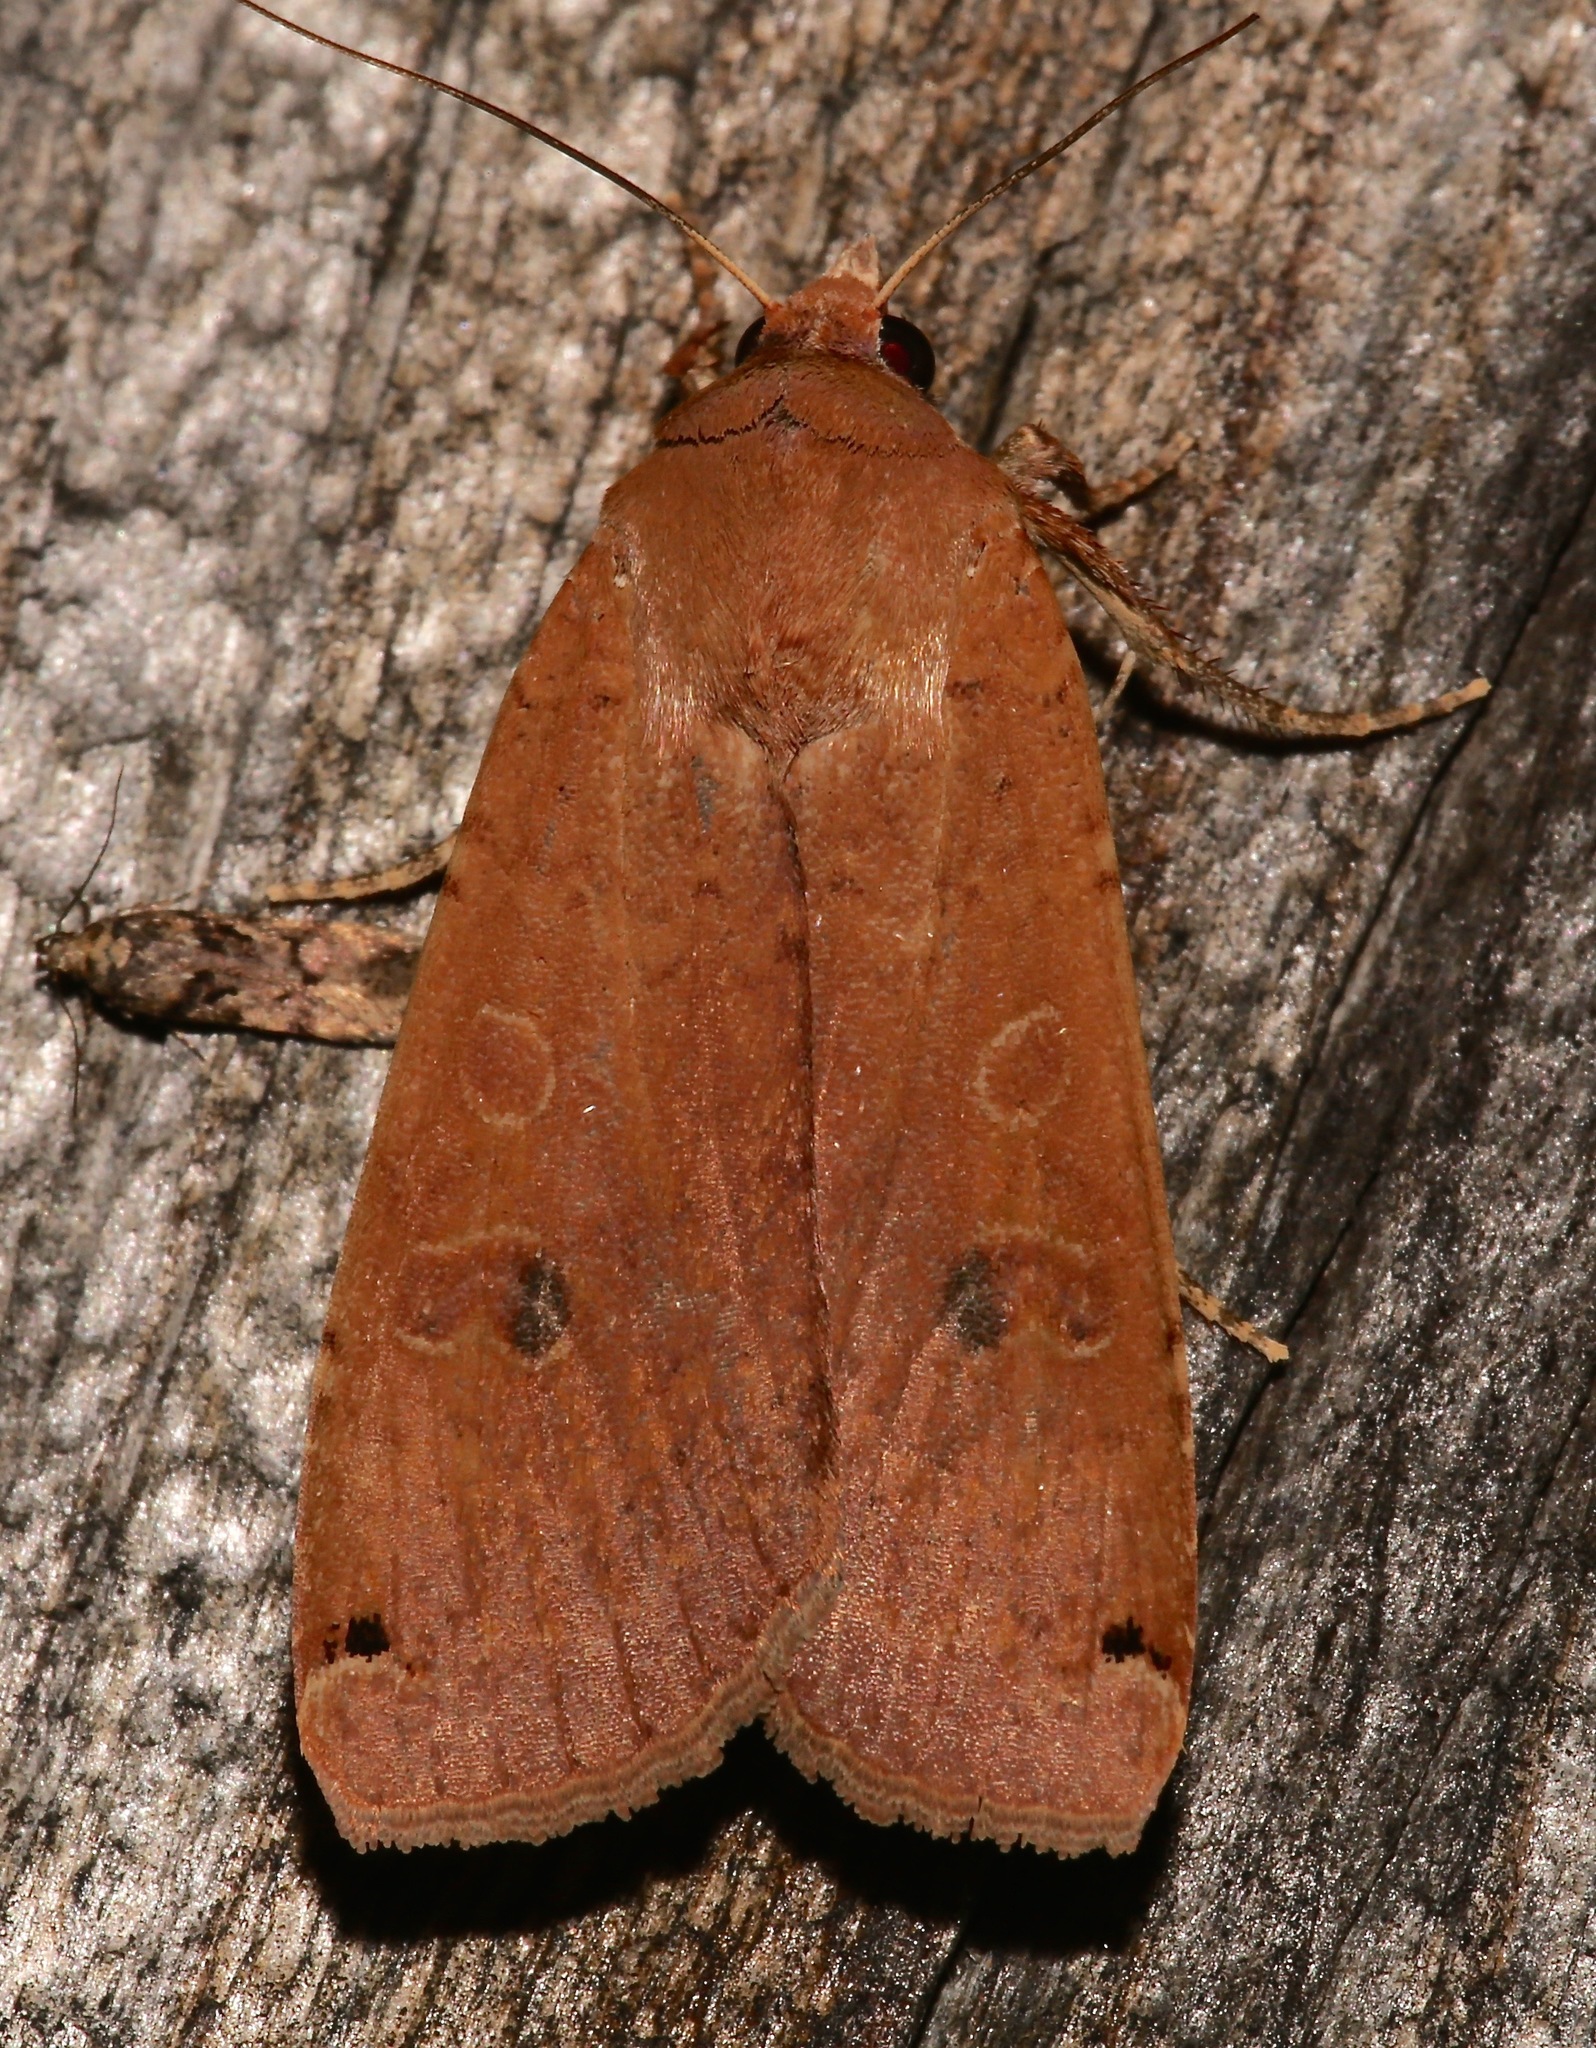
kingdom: Animalia
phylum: Arthropoda
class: Insecta
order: Lepidoptera
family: Noctuidae
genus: Noctua
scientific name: Noctua pronuba
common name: Large yellow underwing
